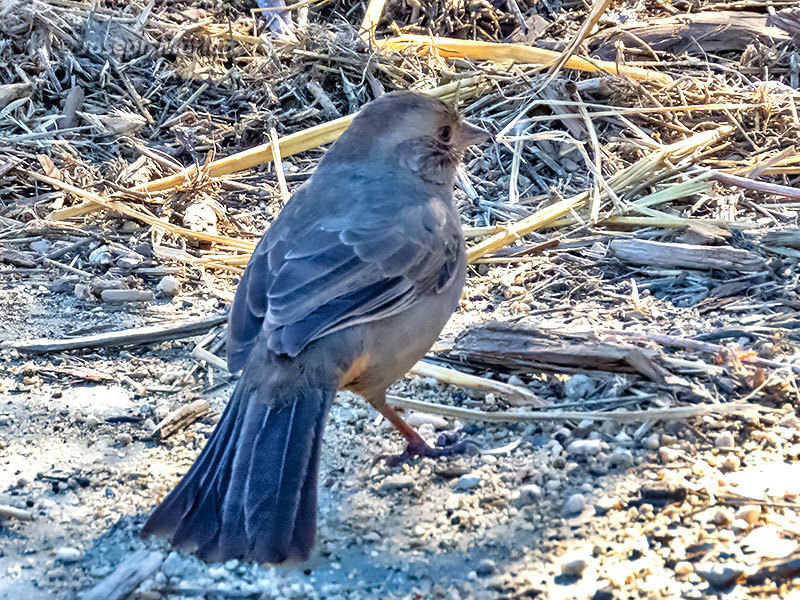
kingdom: Animalia
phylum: Chordata
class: Aves
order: Passeriformes
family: Passerellidae
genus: Melozone
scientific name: Melozone crissalis
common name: California towhee
